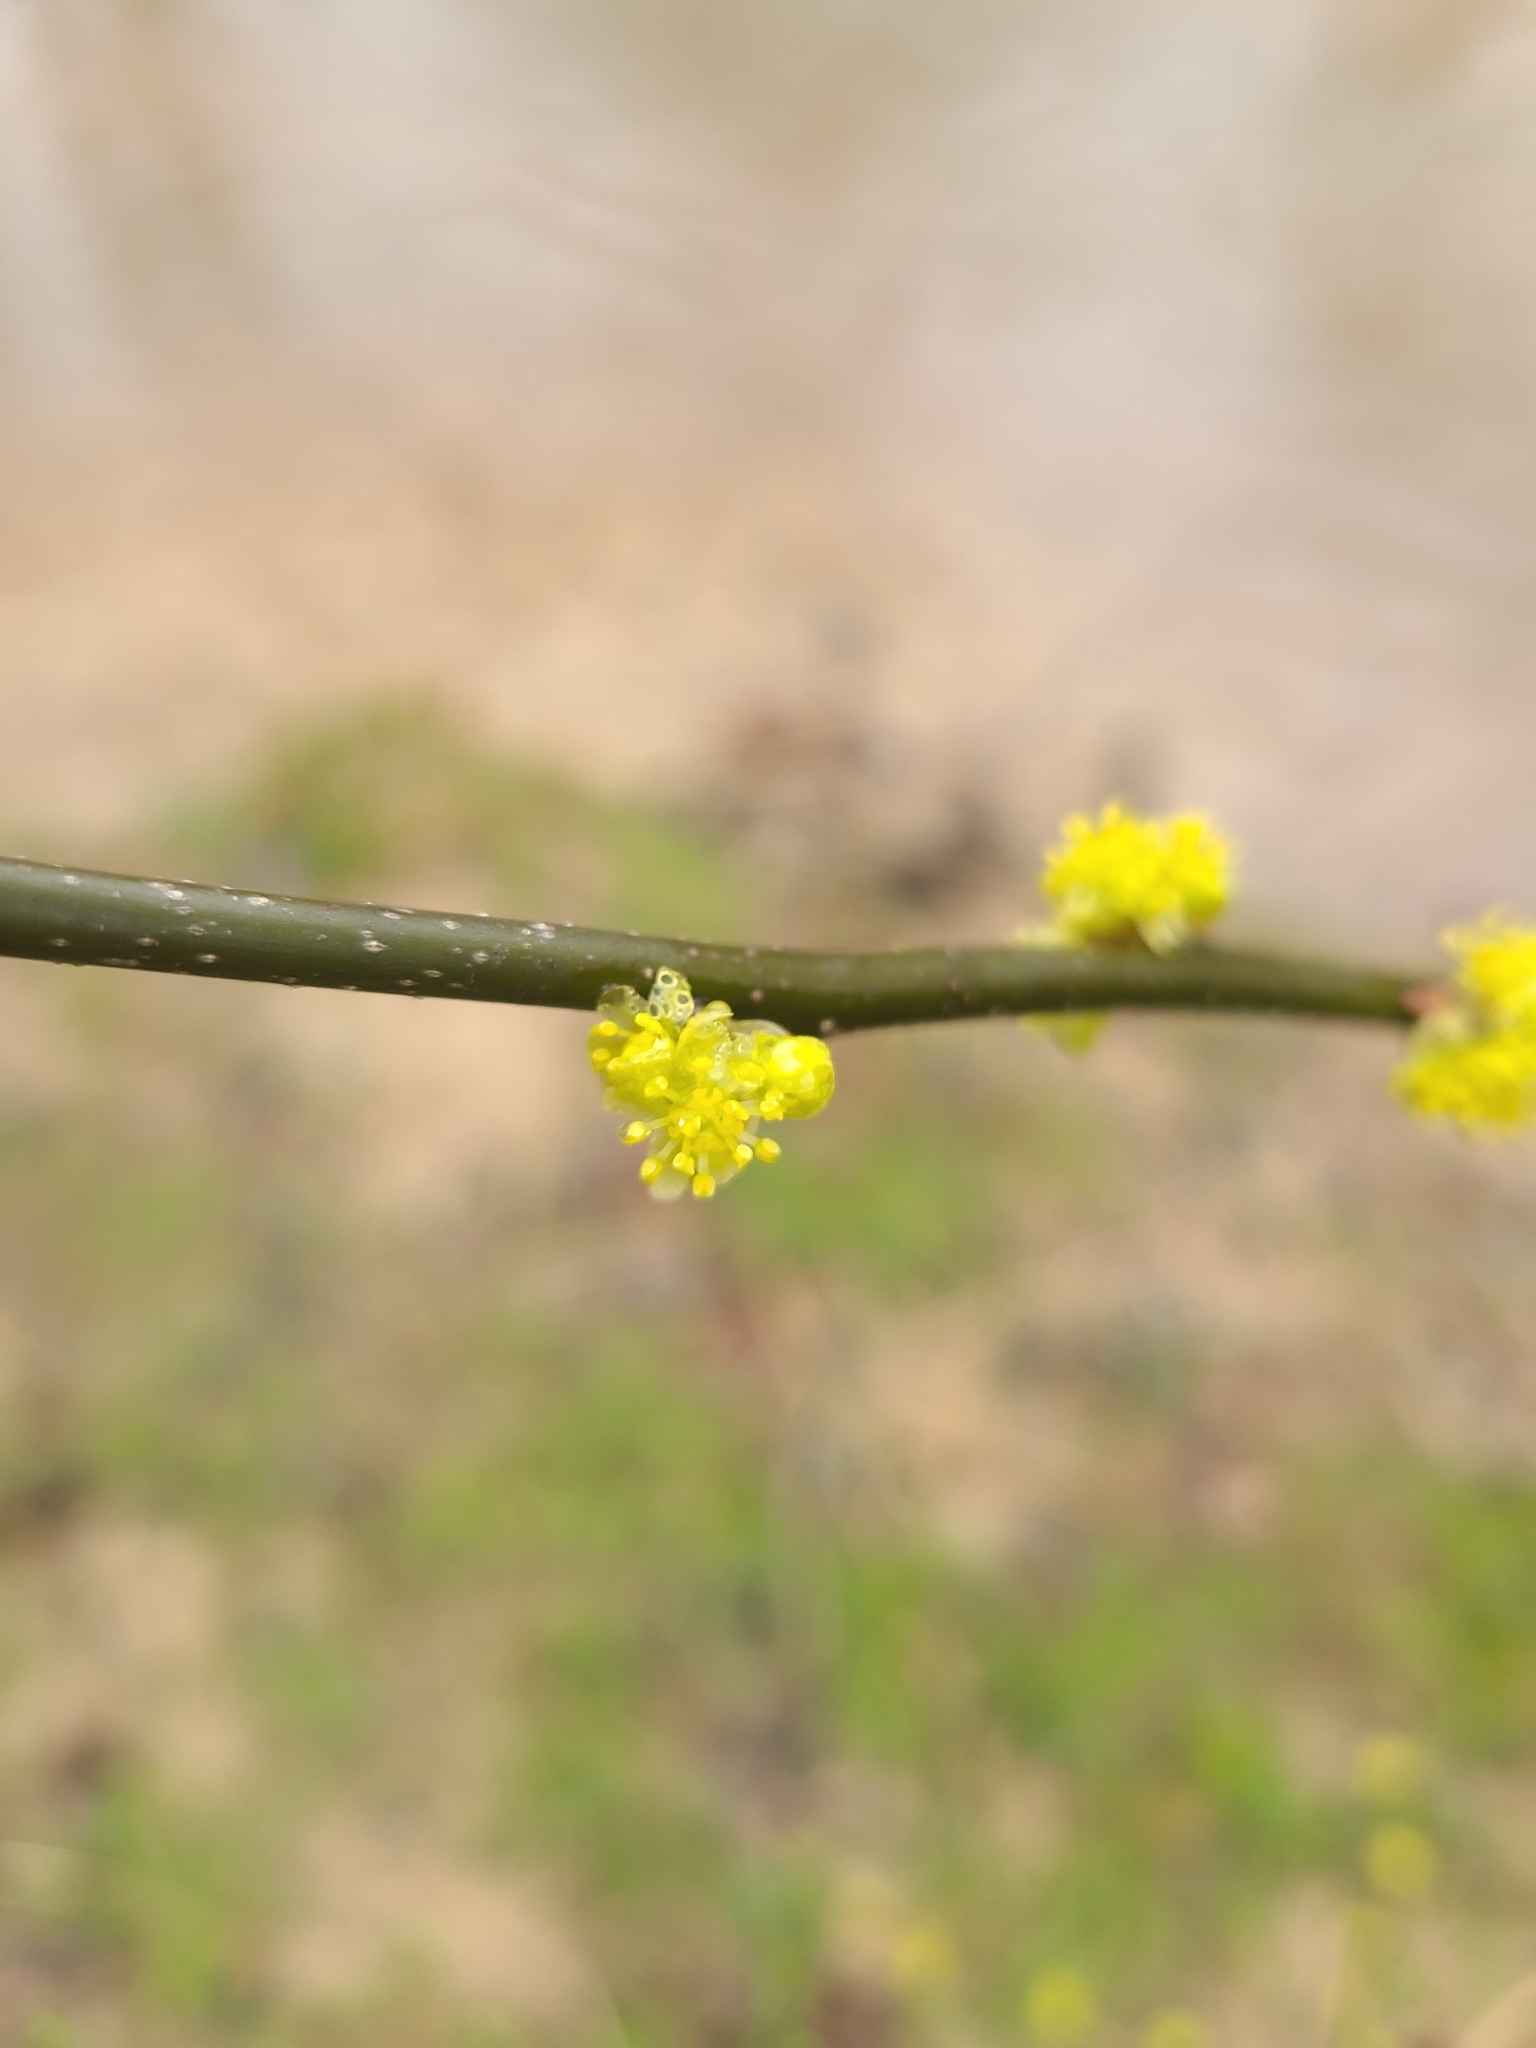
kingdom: Plantae
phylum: Tracheophyta
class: Magnoliopsida
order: Laurales
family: Lauraceae
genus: Lindera
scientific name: Lindera benzoin
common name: Spicebush
